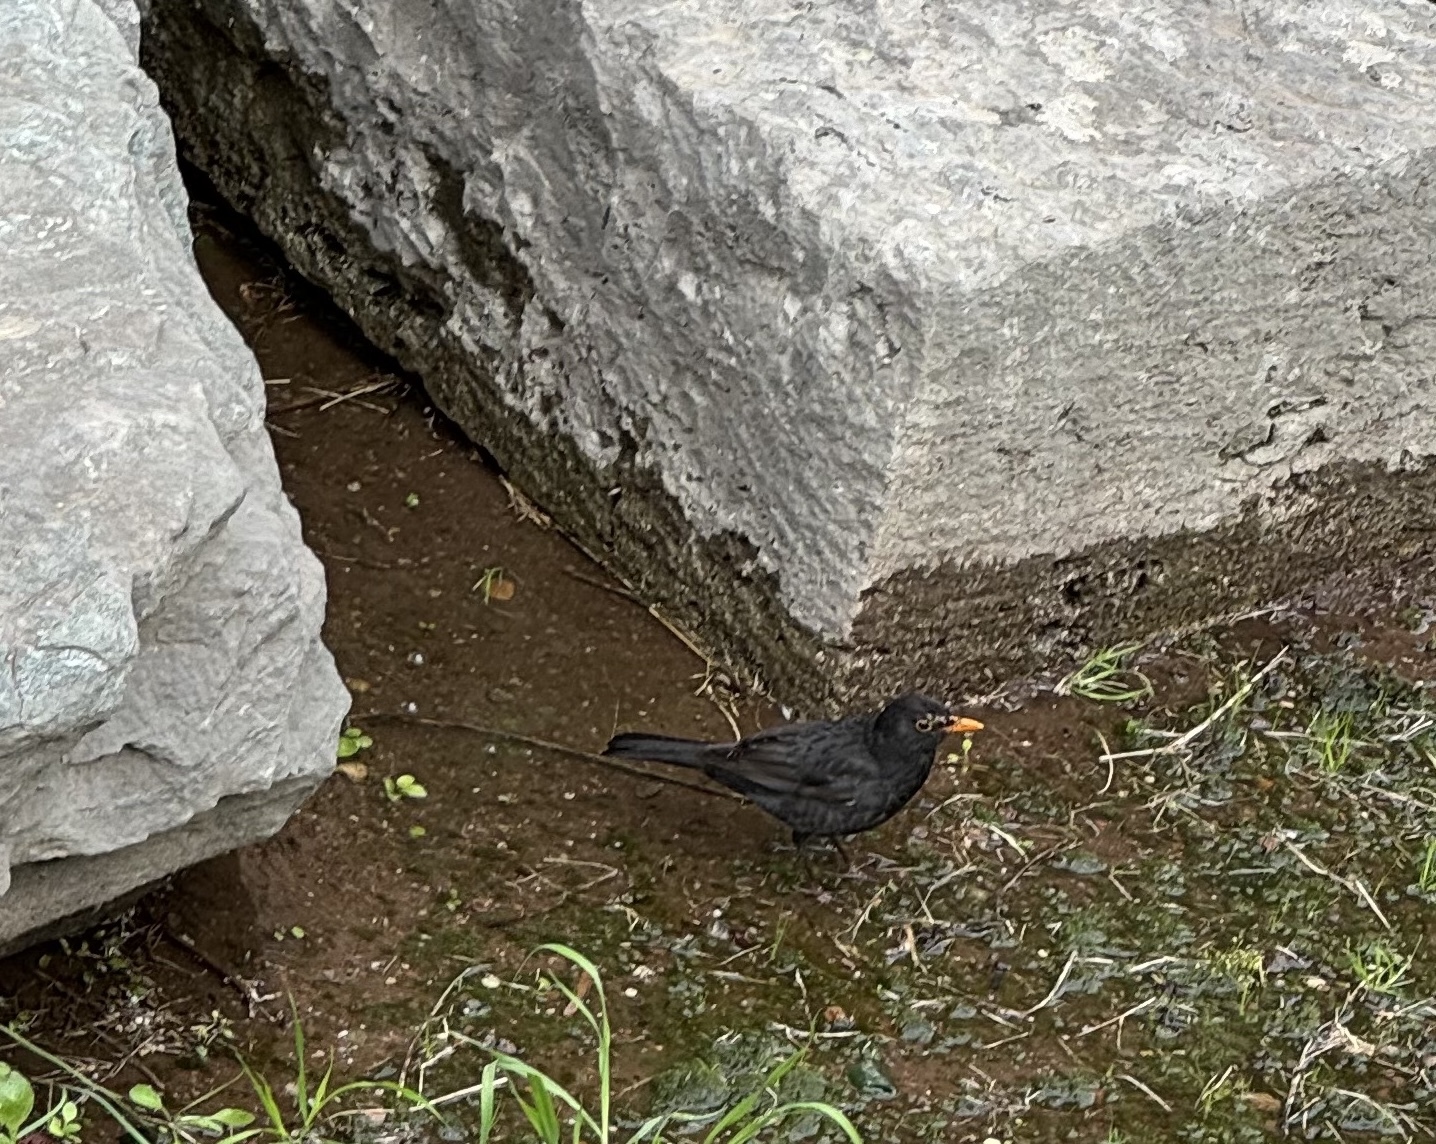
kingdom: Animalia
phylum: Chordata
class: Aves
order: Passeriformes
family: Turdidae
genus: Turdus
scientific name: Turdus merula
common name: Common blackbird
